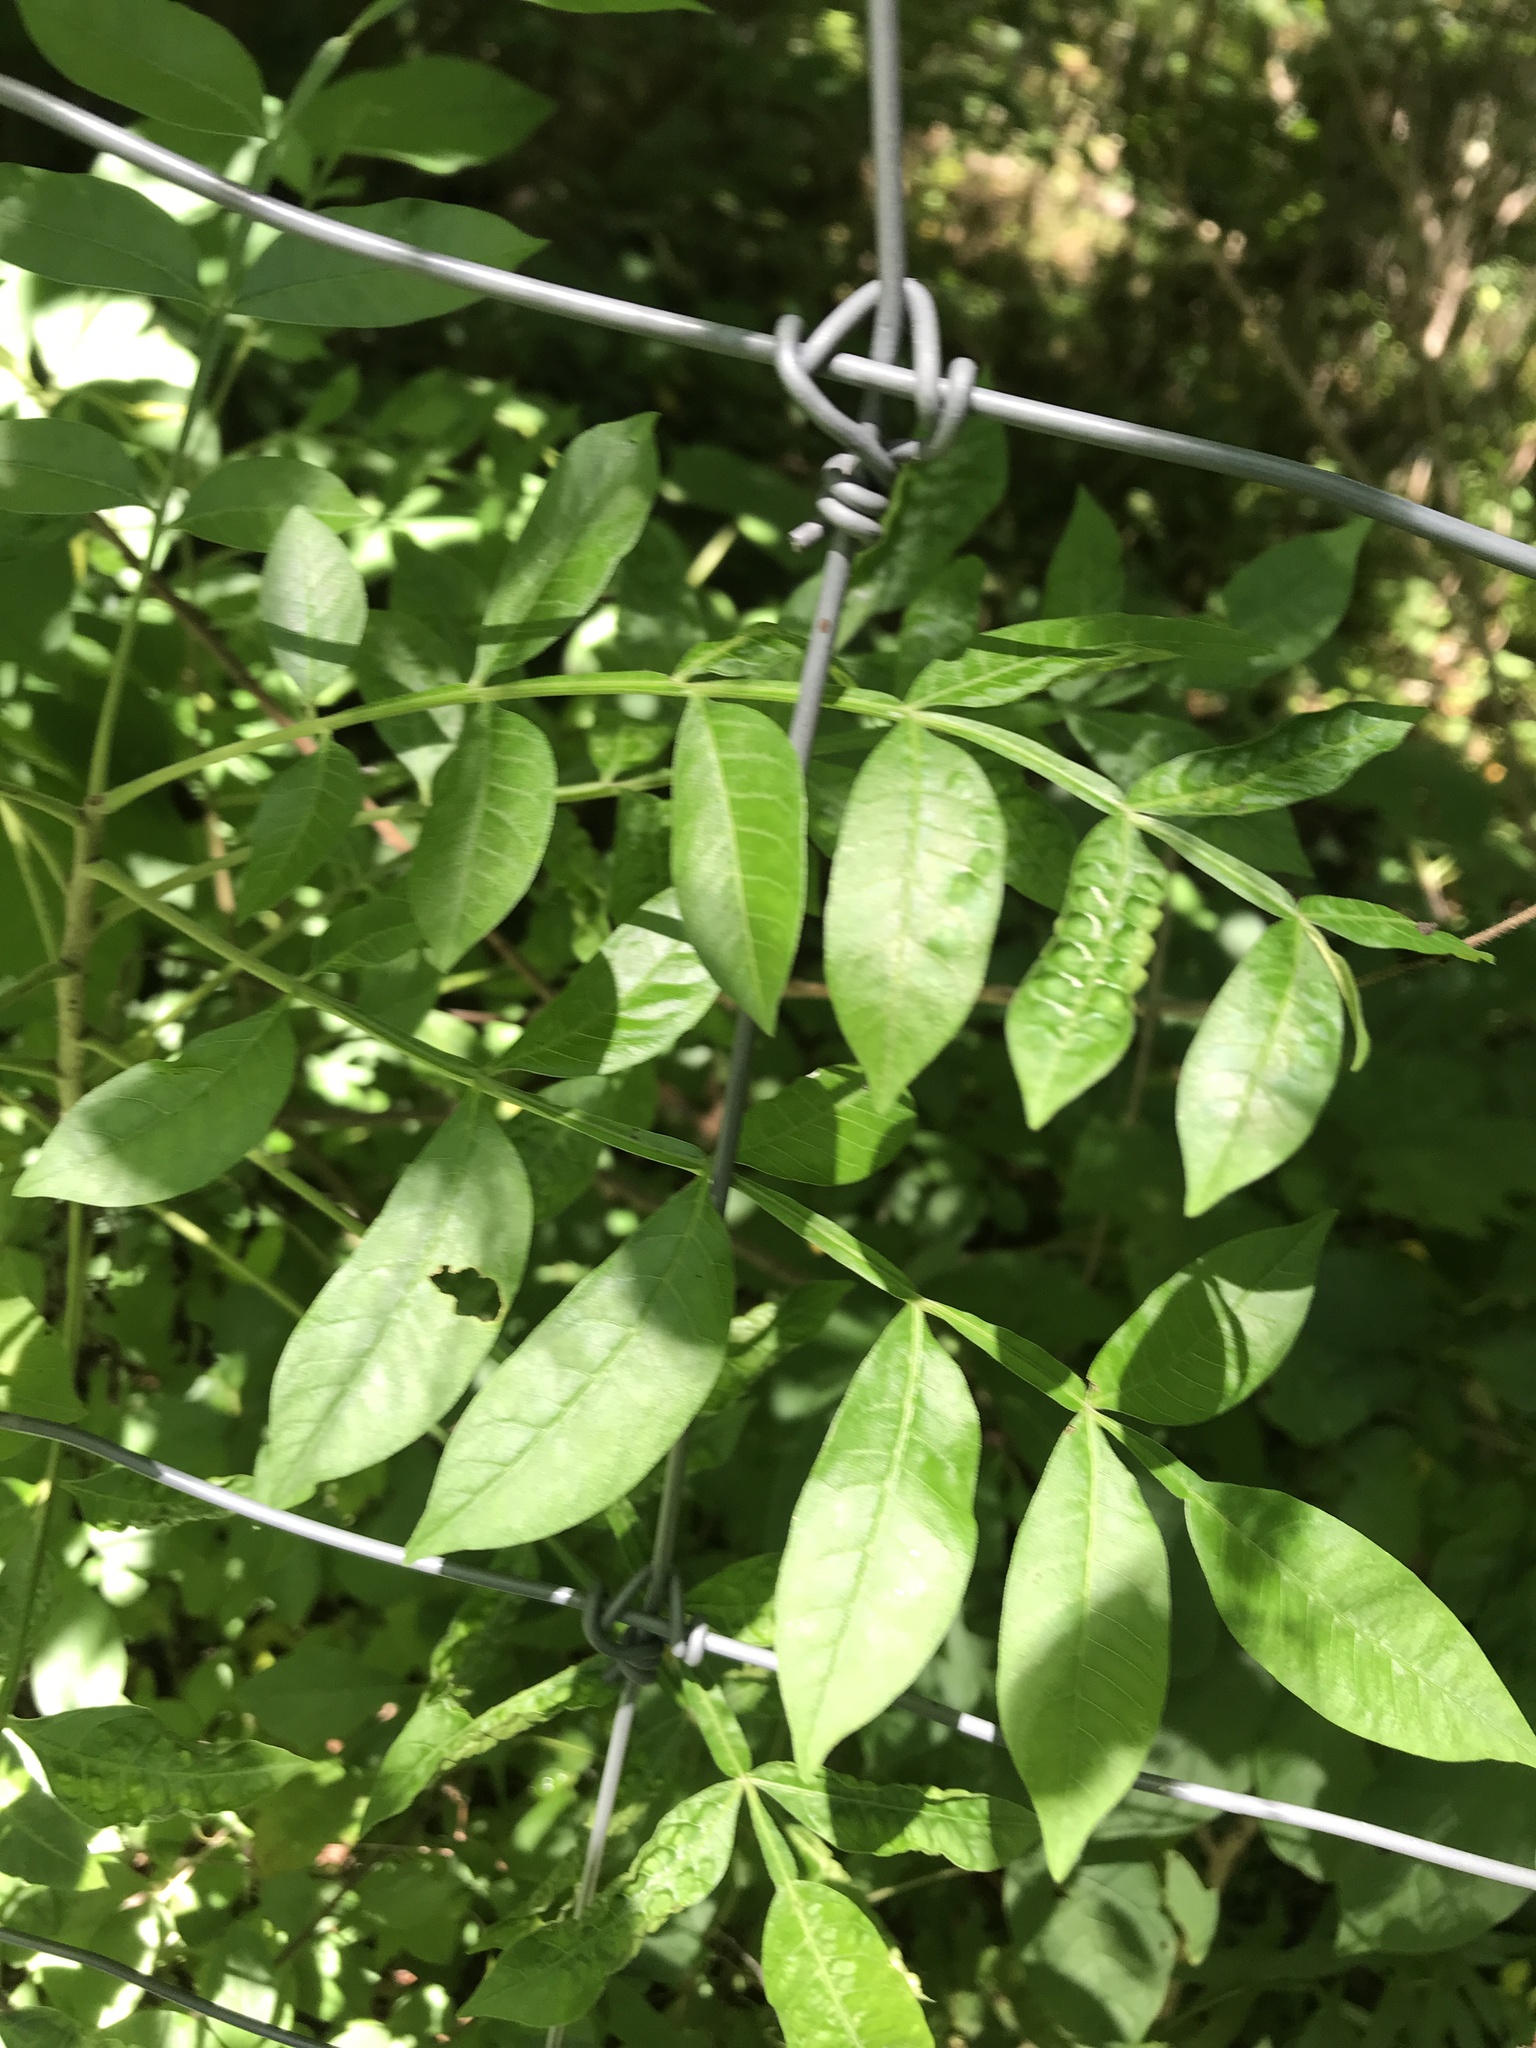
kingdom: Plantae
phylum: Tracheophyta
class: Magnoliopsida
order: Sapindales
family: Anacardiaceae
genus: Rhus
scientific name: Rhus copallina
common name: Shining sumac
